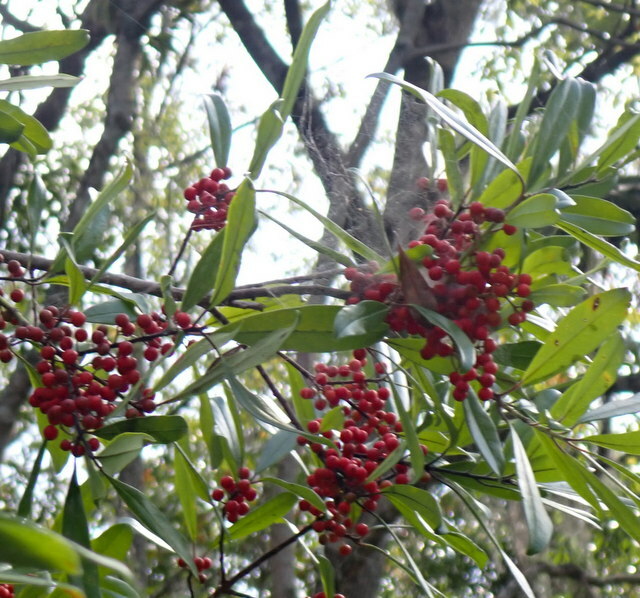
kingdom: Plantae
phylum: Tracheophyta
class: Magnoliopsida
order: Aquifoliales
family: Aquifoliaceae
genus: Ilex
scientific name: Ilex cassine
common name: Dahoon
